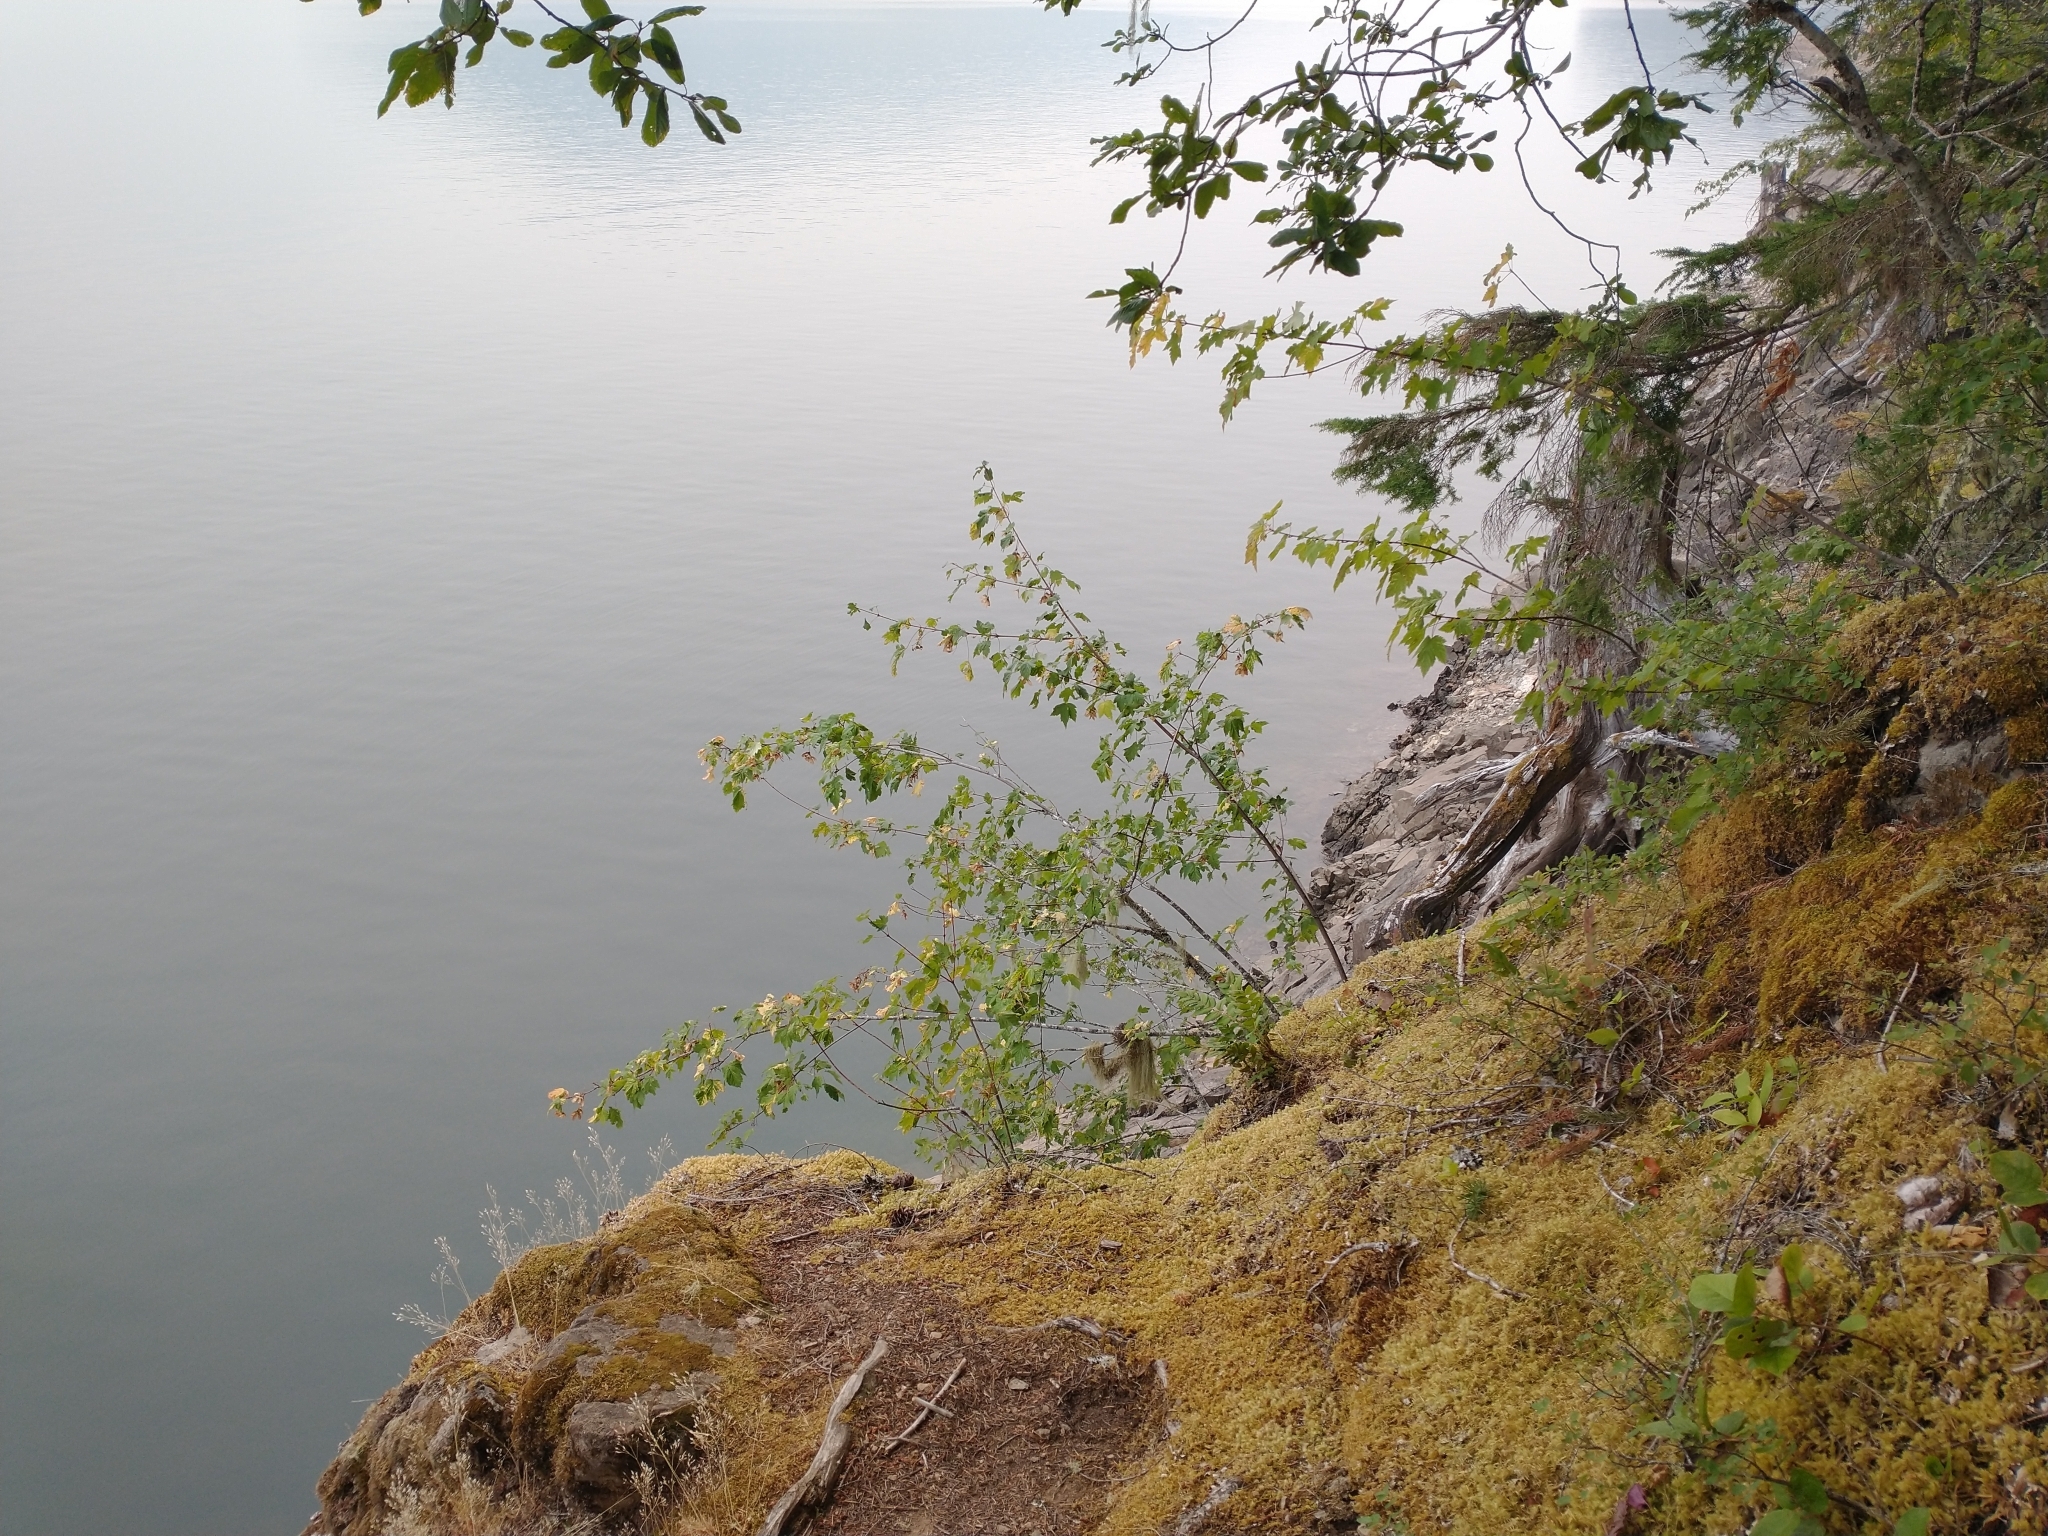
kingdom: Plantae
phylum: Tracheophyta
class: Magnoliopsida
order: Sapindales
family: Sapindaceae
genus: Acer
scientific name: Acer glabrum
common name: Rocky mountain maple
